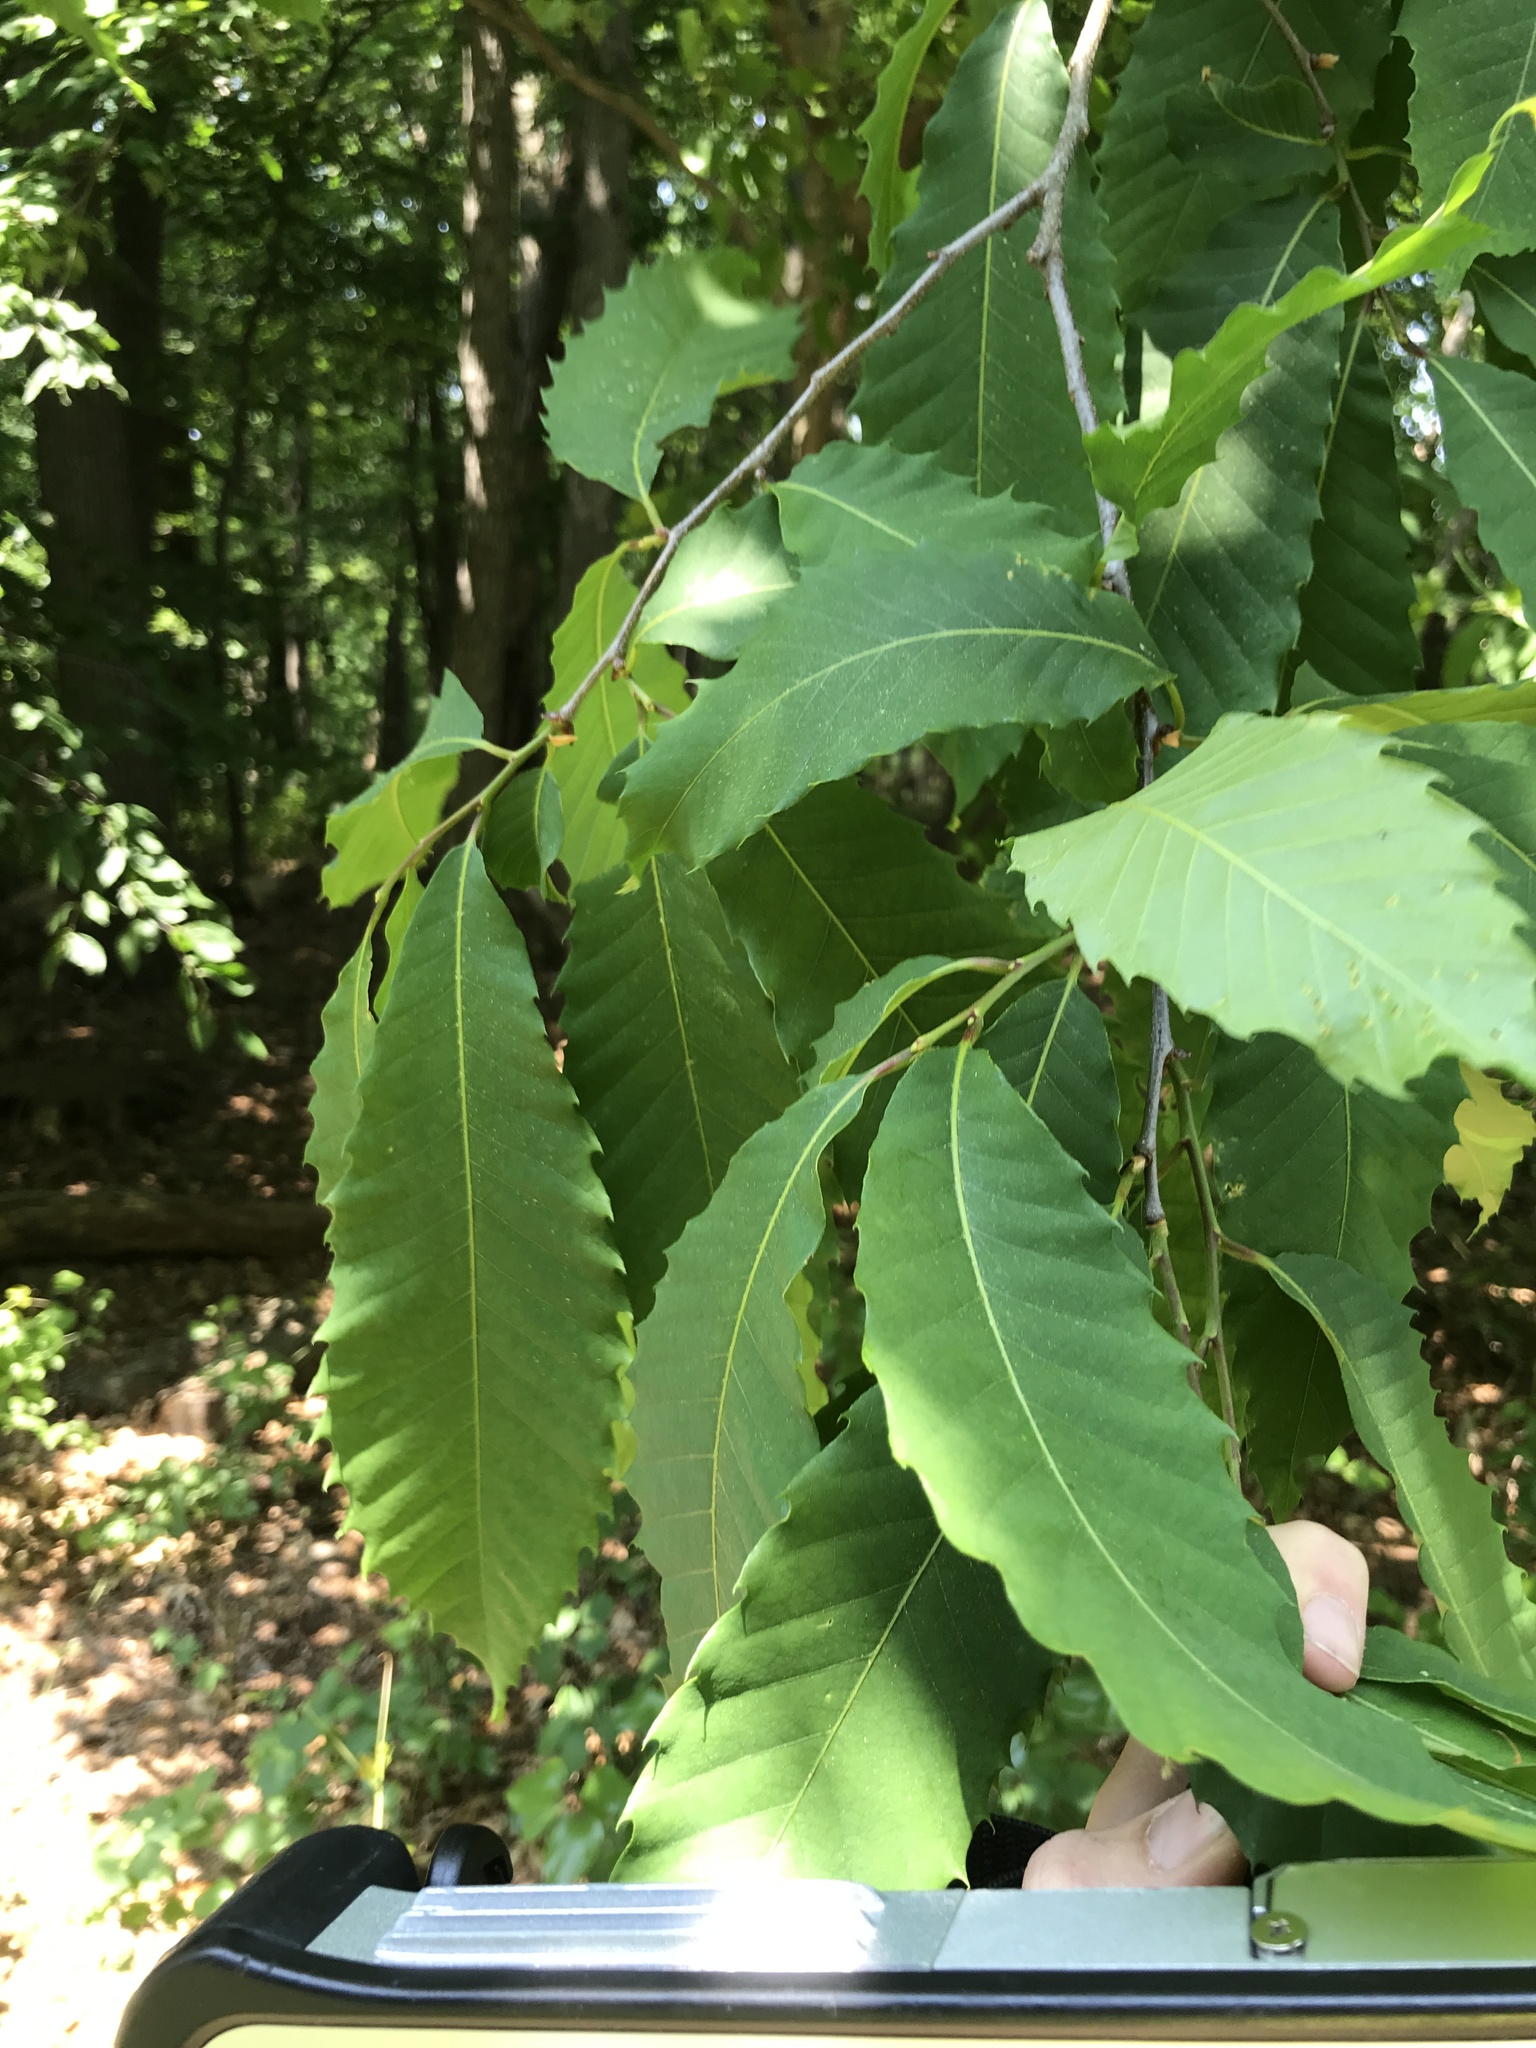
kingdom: Plantae
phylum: Tracheophyta
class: Magnoliopsida
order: Fagales
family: Fagaceae
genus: Castanea
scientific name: Castanea dentata
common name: American chestnut
